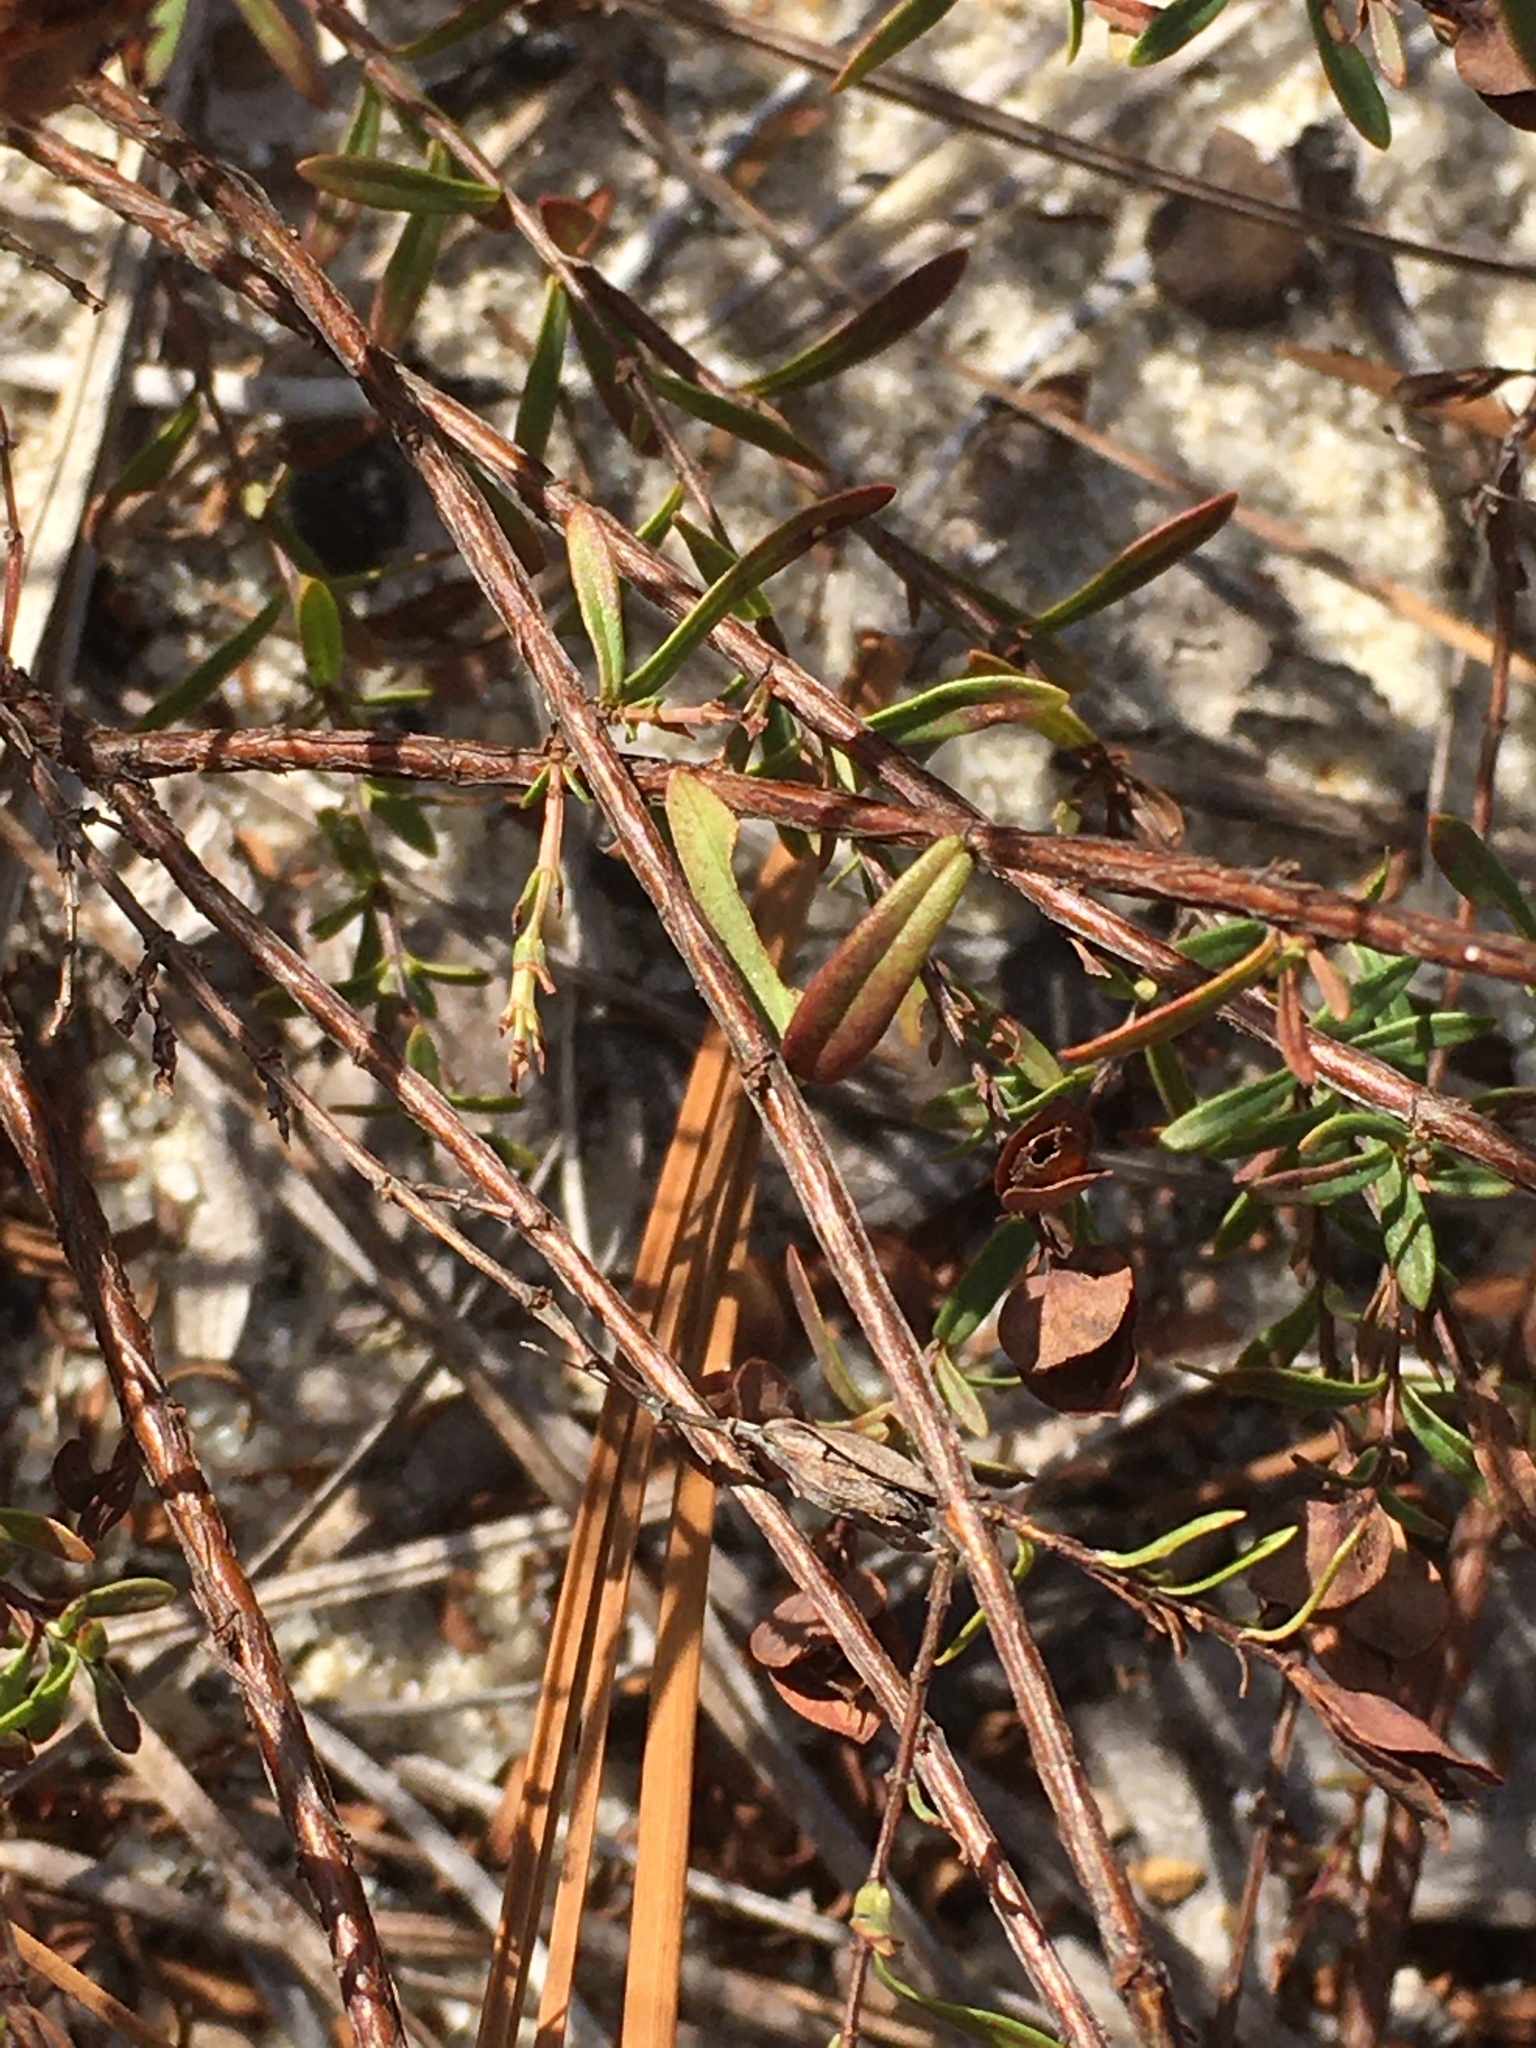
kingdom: Plantae
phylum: Tracheophyta
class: Magnoliopsida
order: Malpighiales
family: Hypericaceae
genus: Hypericum
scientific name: Hypericum hypericoides
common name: St. andrew's cross
